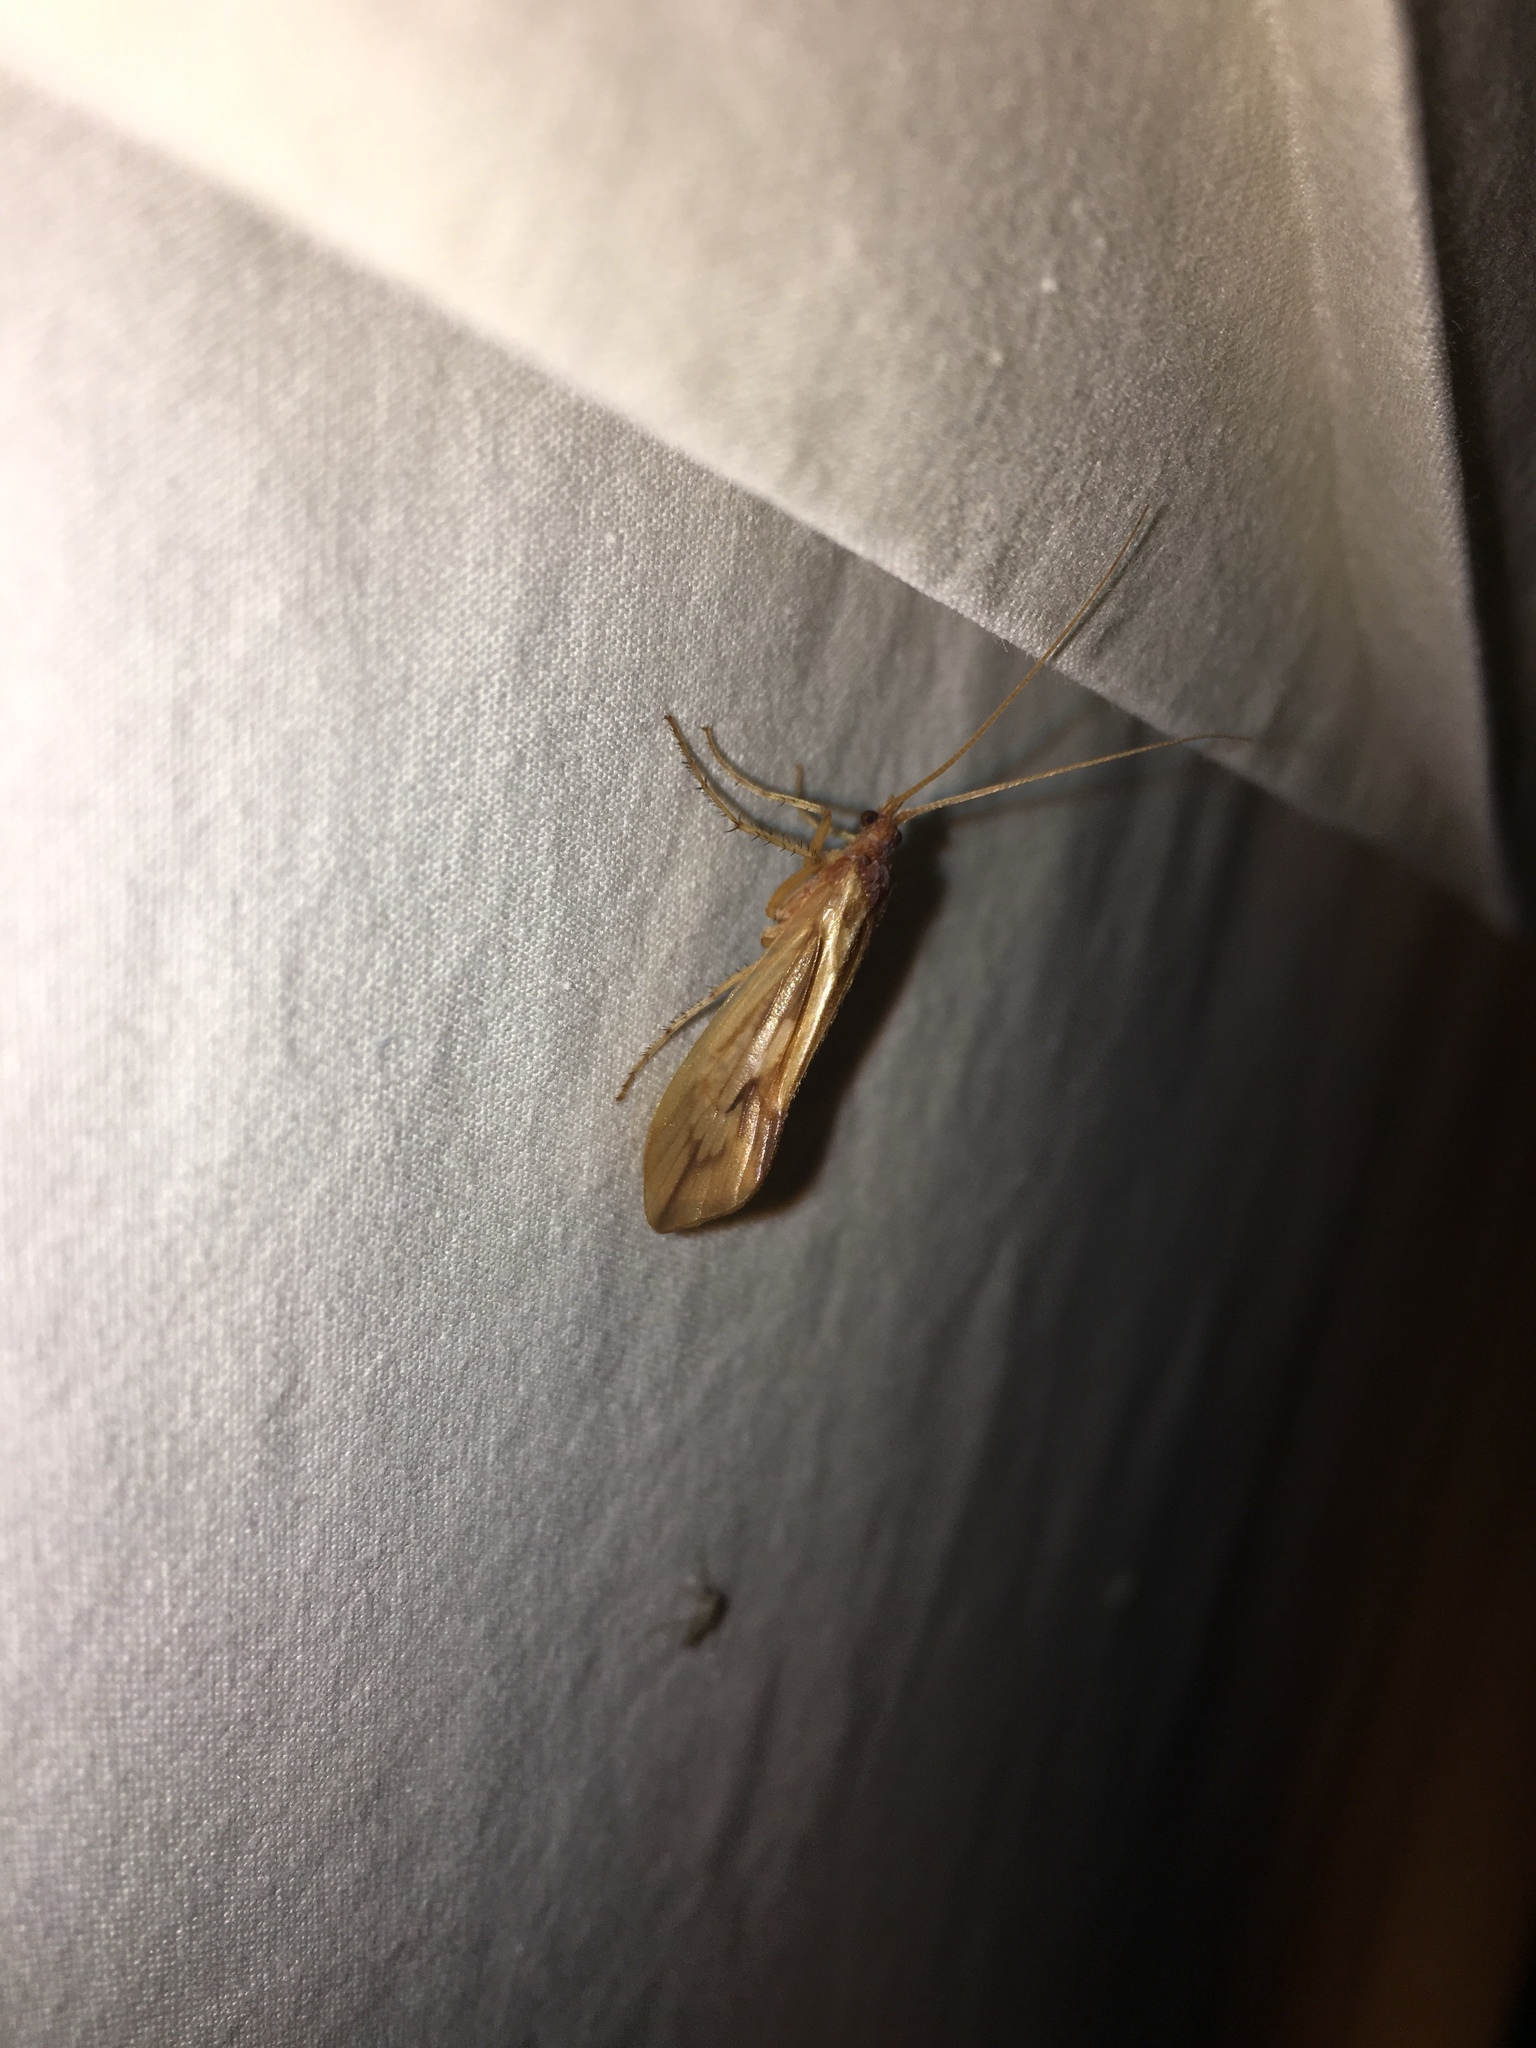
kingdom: Animalia
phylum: Arthropoda
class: Insecta
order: Trichoptera
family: Limnephilidae
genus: Platycentropus
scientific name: Platycentropus radiatus
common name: Chocolate-and-cream sedge
